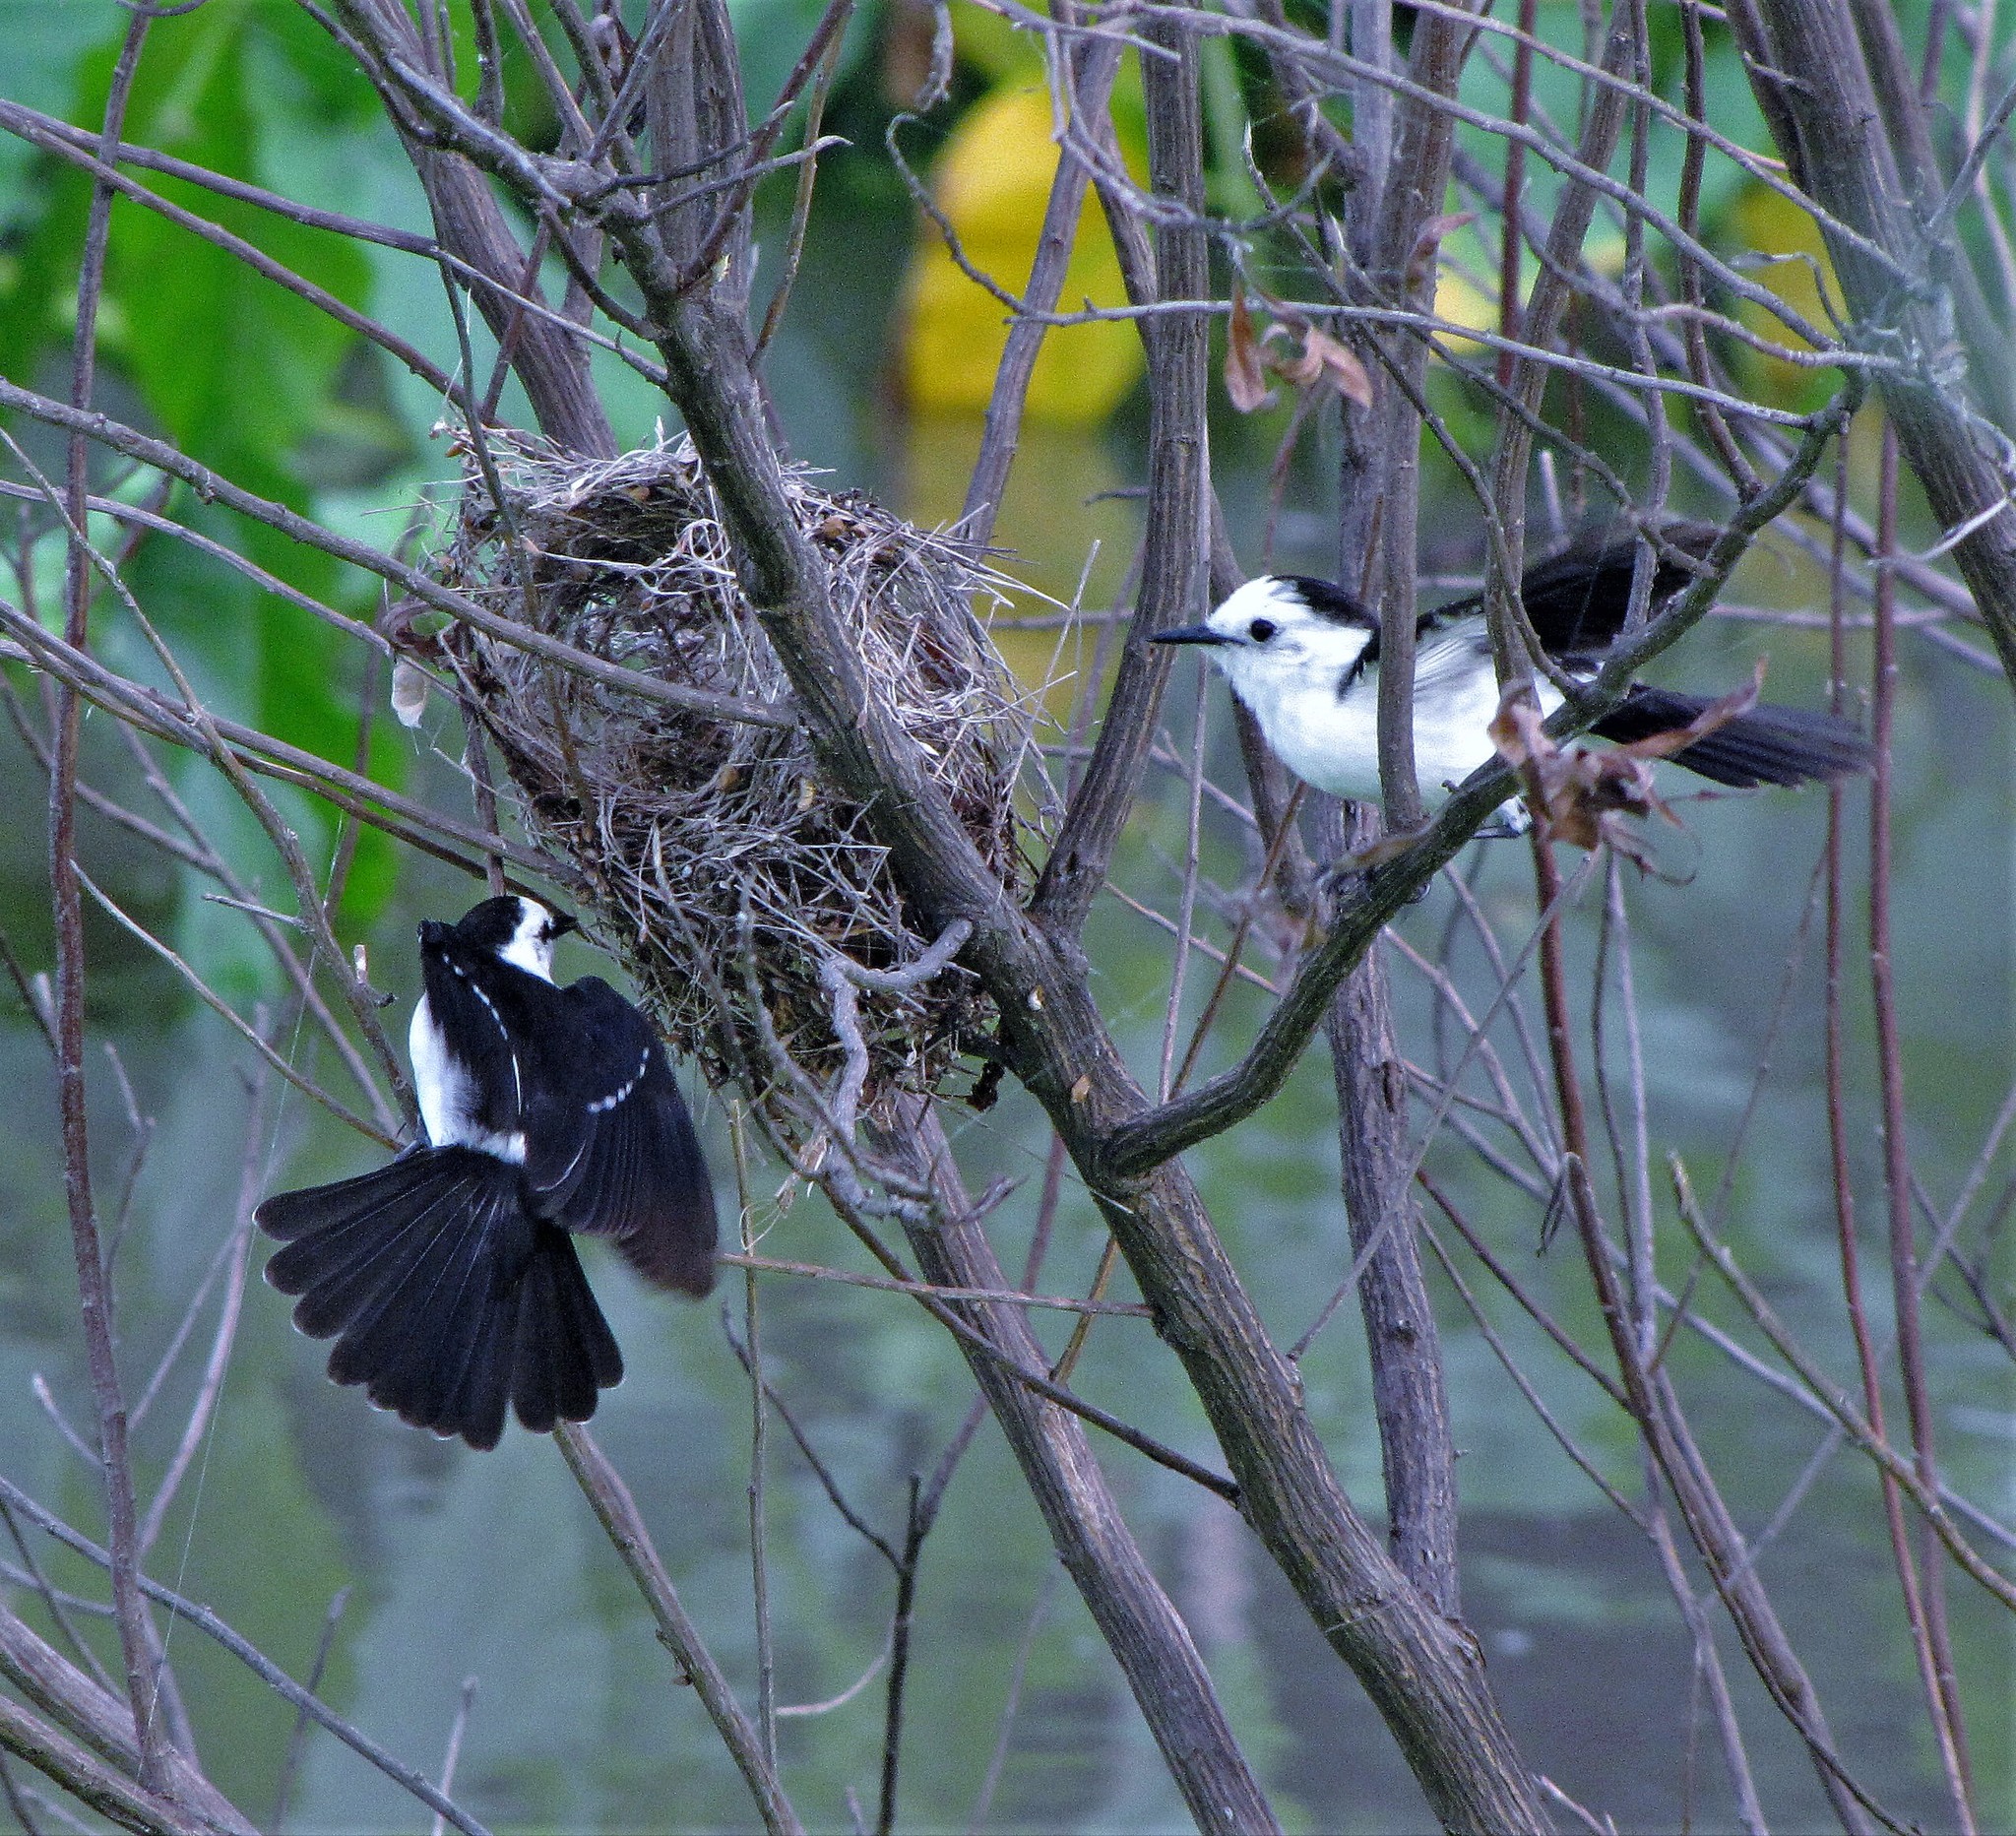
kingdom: Animalia
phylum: Chordata
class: Aves
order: Passeriformes
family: Tyrannidae
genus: Fluvicola
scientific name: Fluvicola pica
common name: Pied water-tyrant
